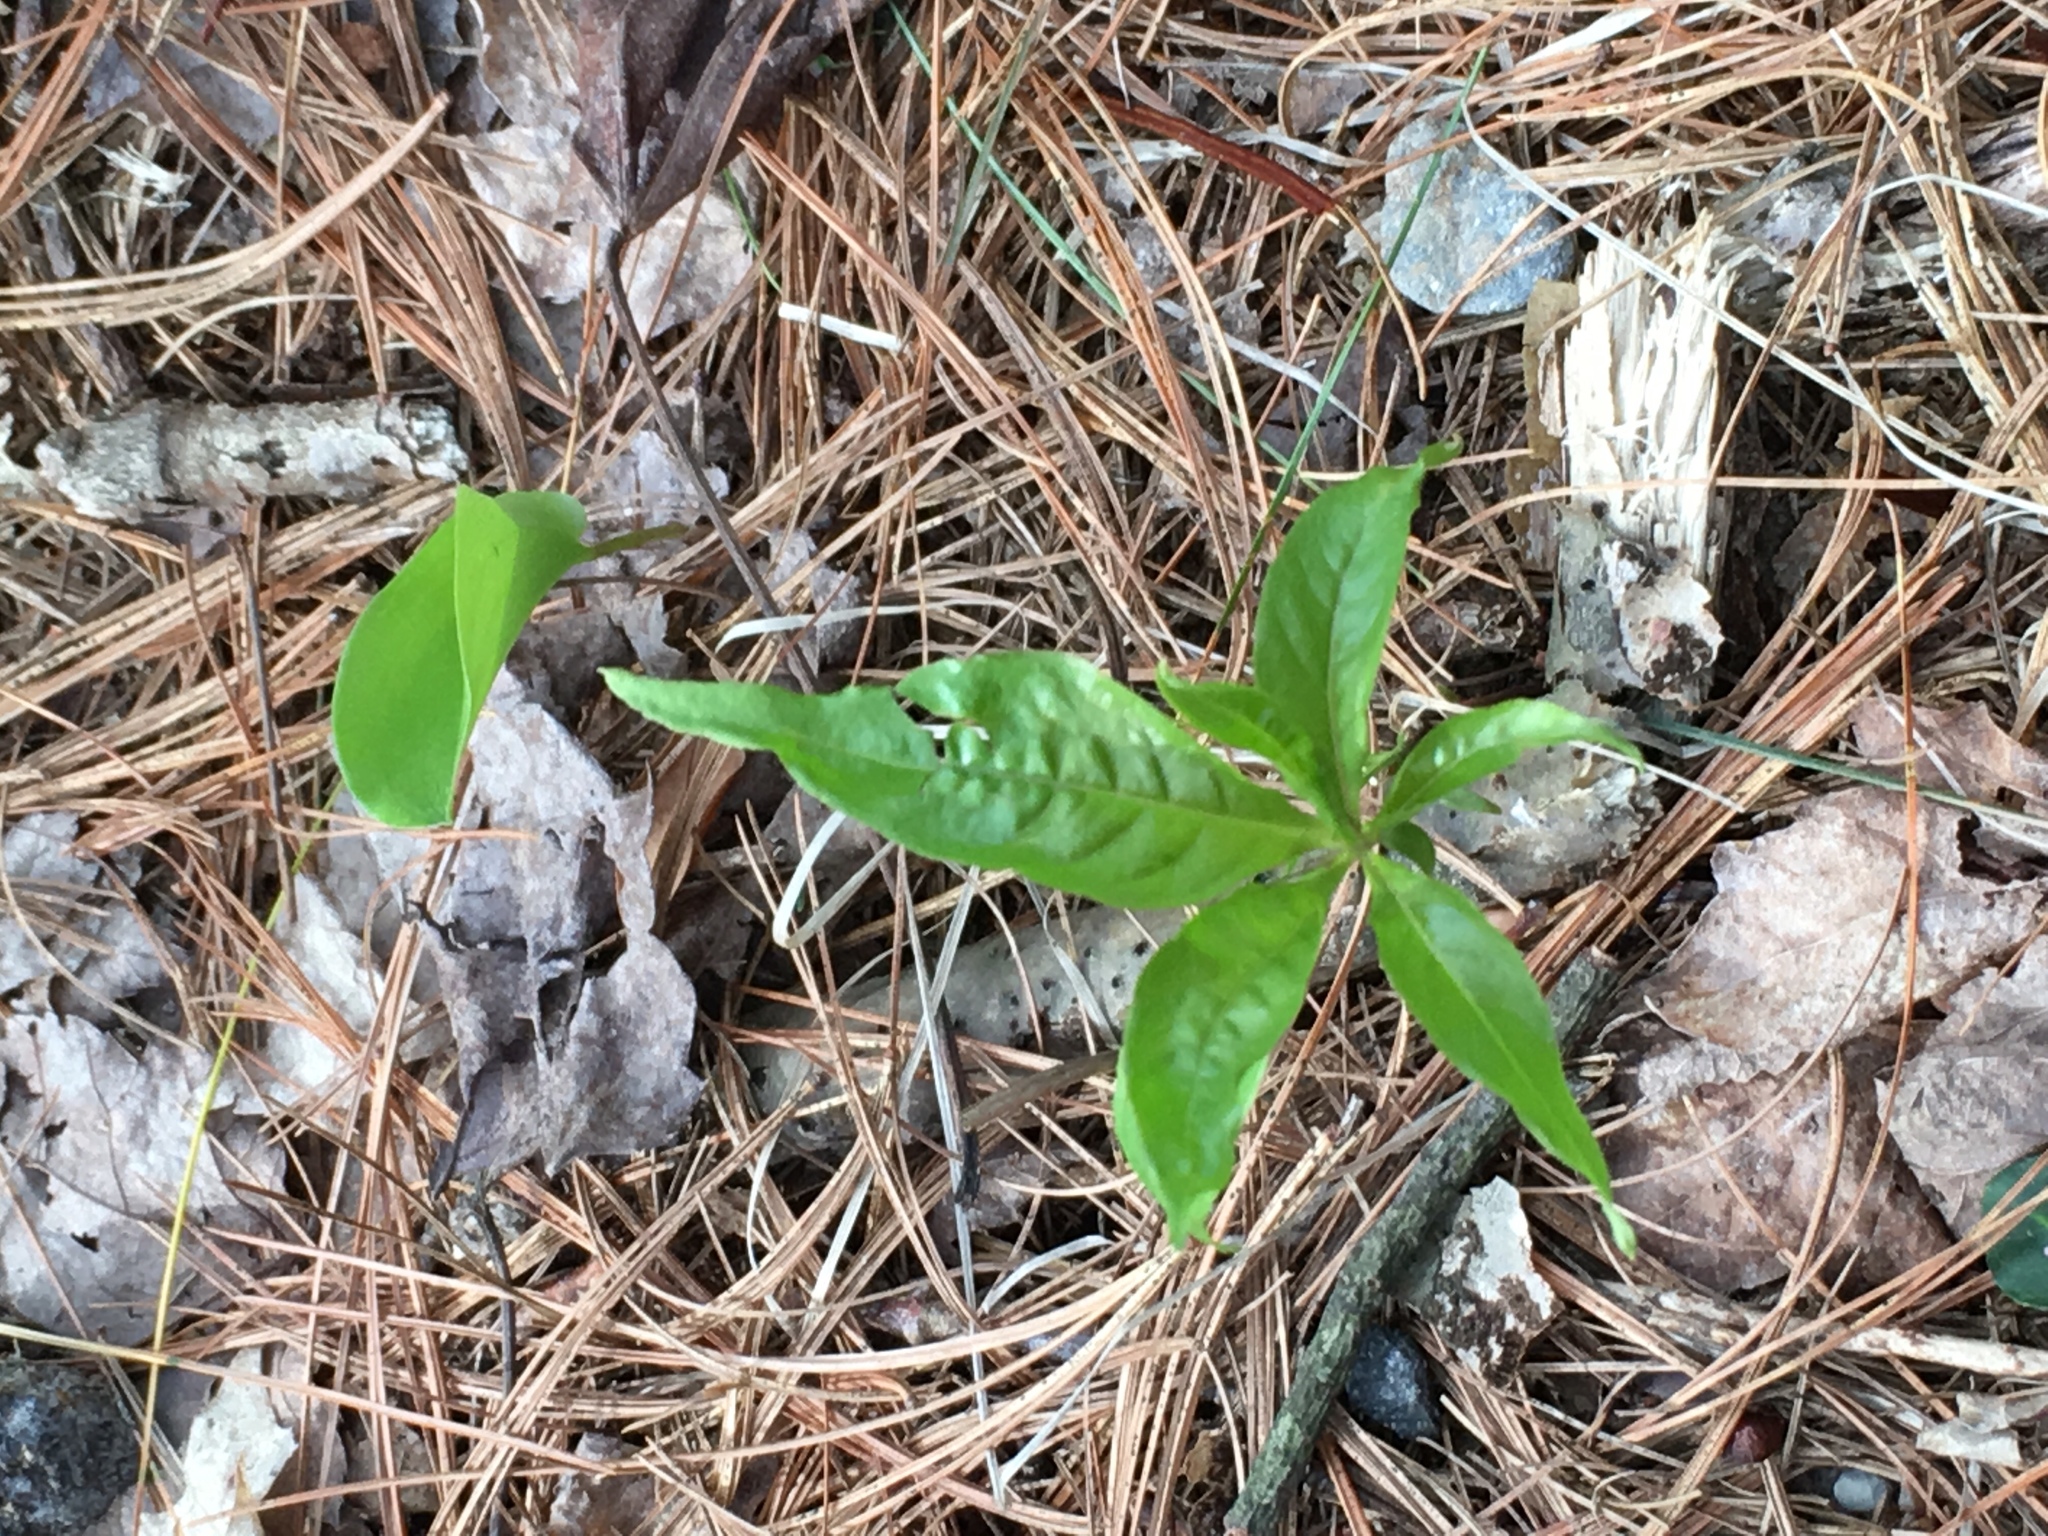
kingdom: Plantae
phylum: Tracheophyta
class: Magnoliopsida
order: Ericales
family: Primulaceae
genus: Lysimachia
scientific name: Lysimachia borealis
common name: American starflower
